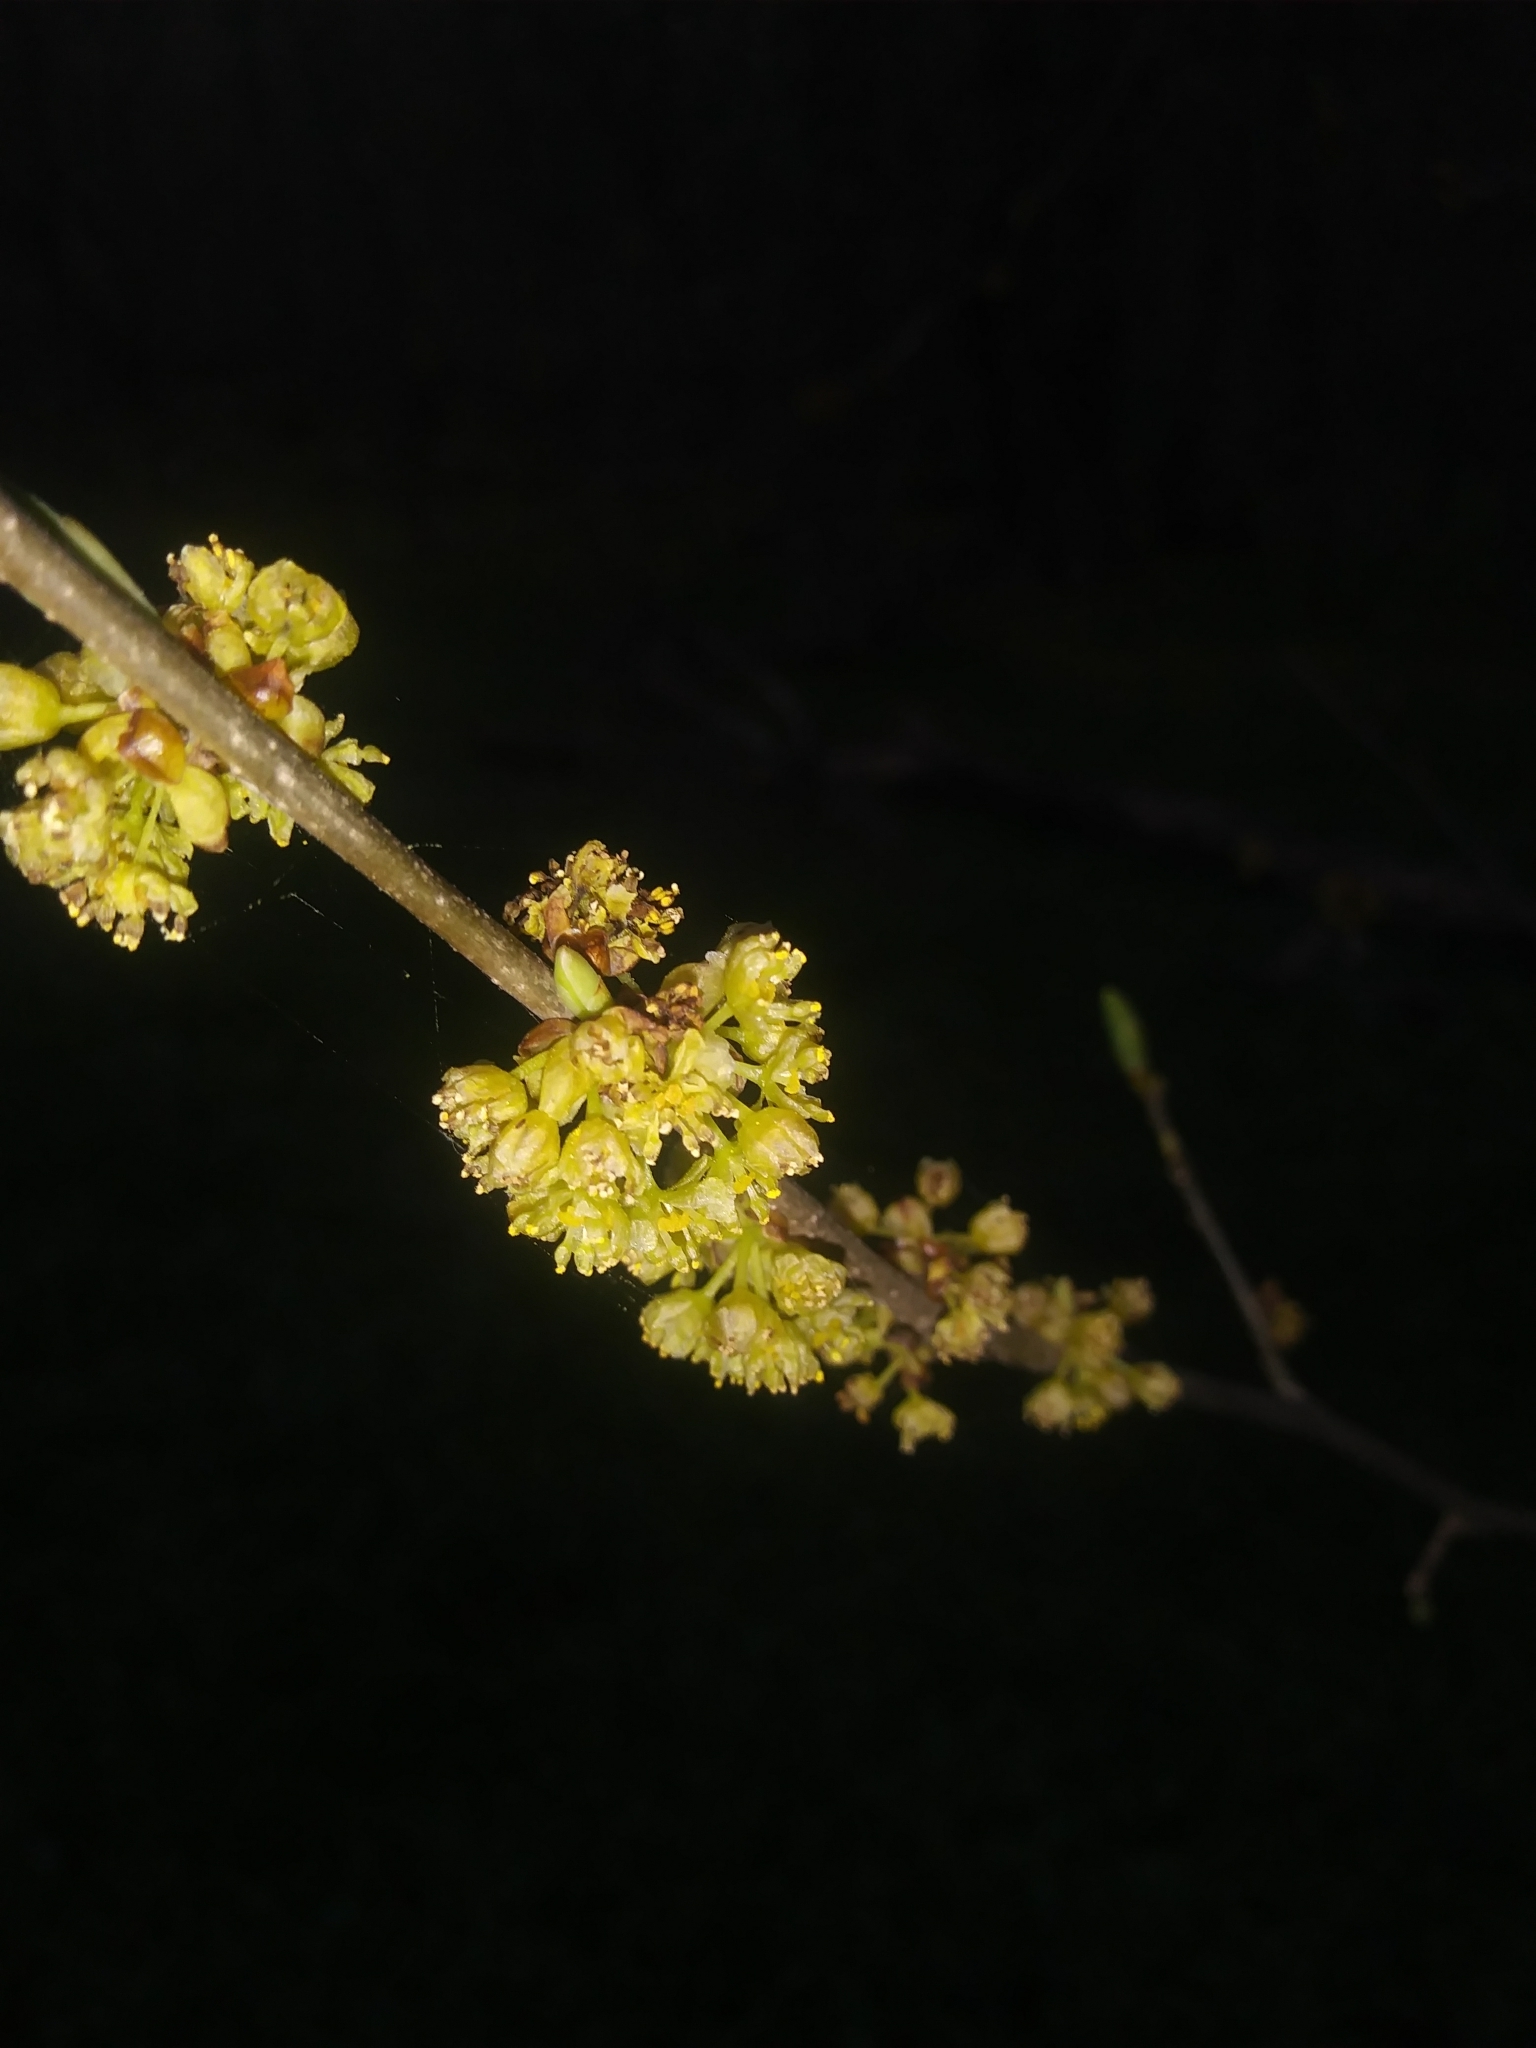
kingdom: Plantae
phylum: Tracheophyta
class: Magnoliopsida
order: Laurales
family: Lauraceae
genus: Lindera
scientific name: Lindera benzoin
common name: Spicebush
